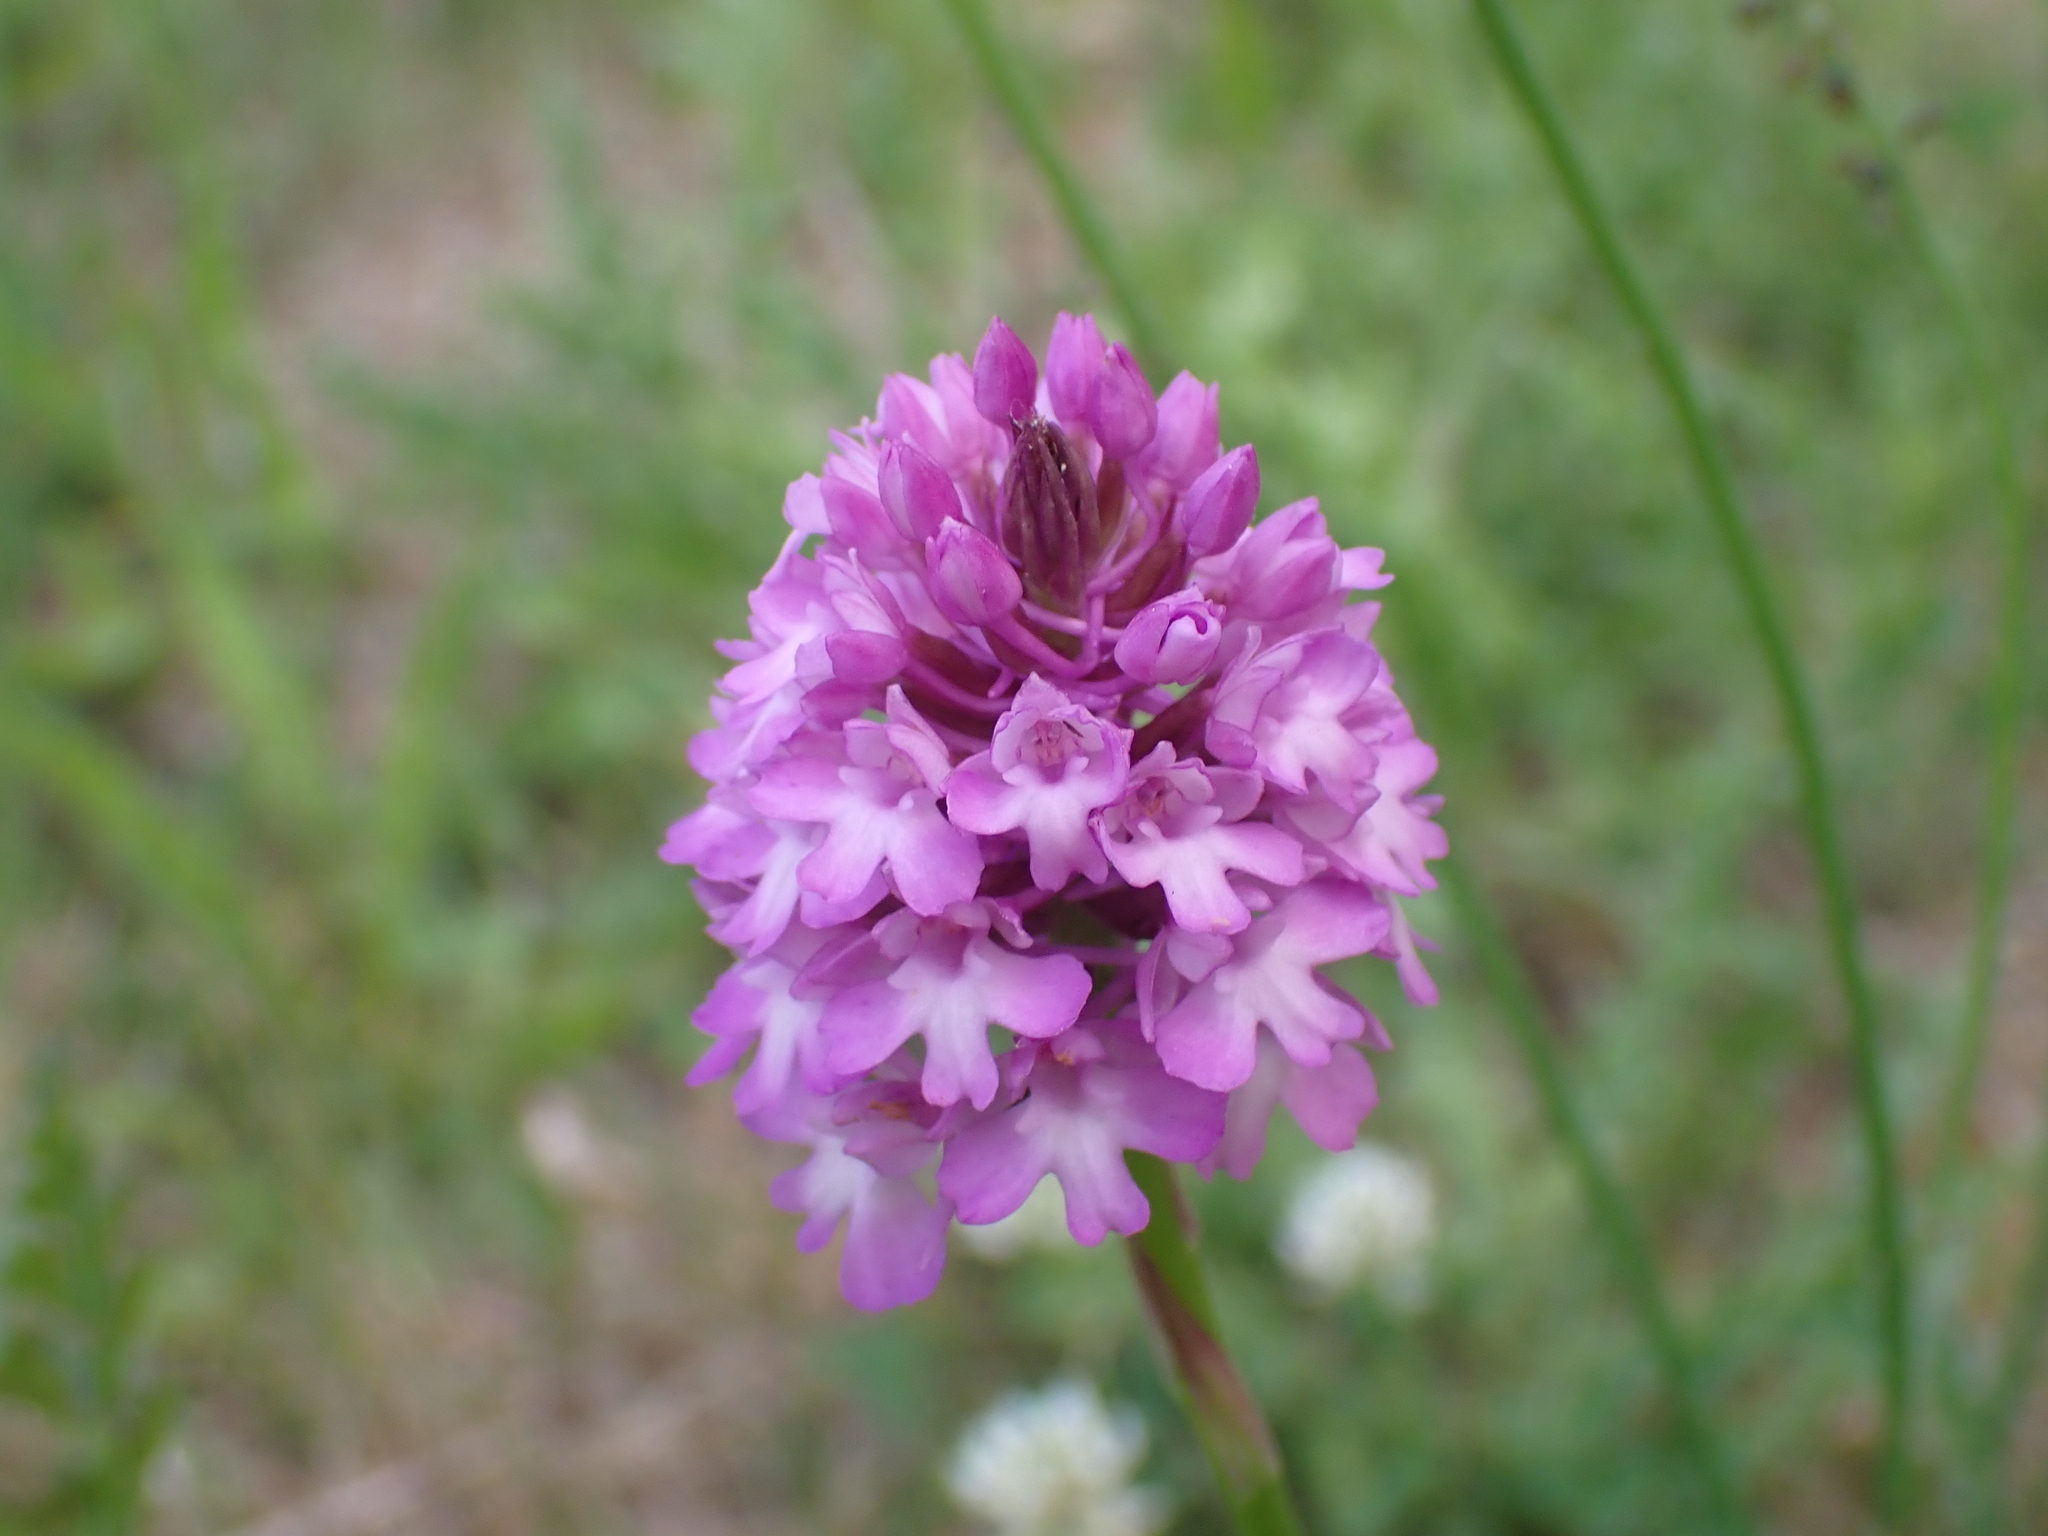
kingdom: Plantae
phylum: Tracheophyta
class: Liliopsida
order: Asparagales
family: Orchidaceae
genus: Anacamptis
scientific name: Anacamptis pyramidalis
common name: Pyramidal orchid
